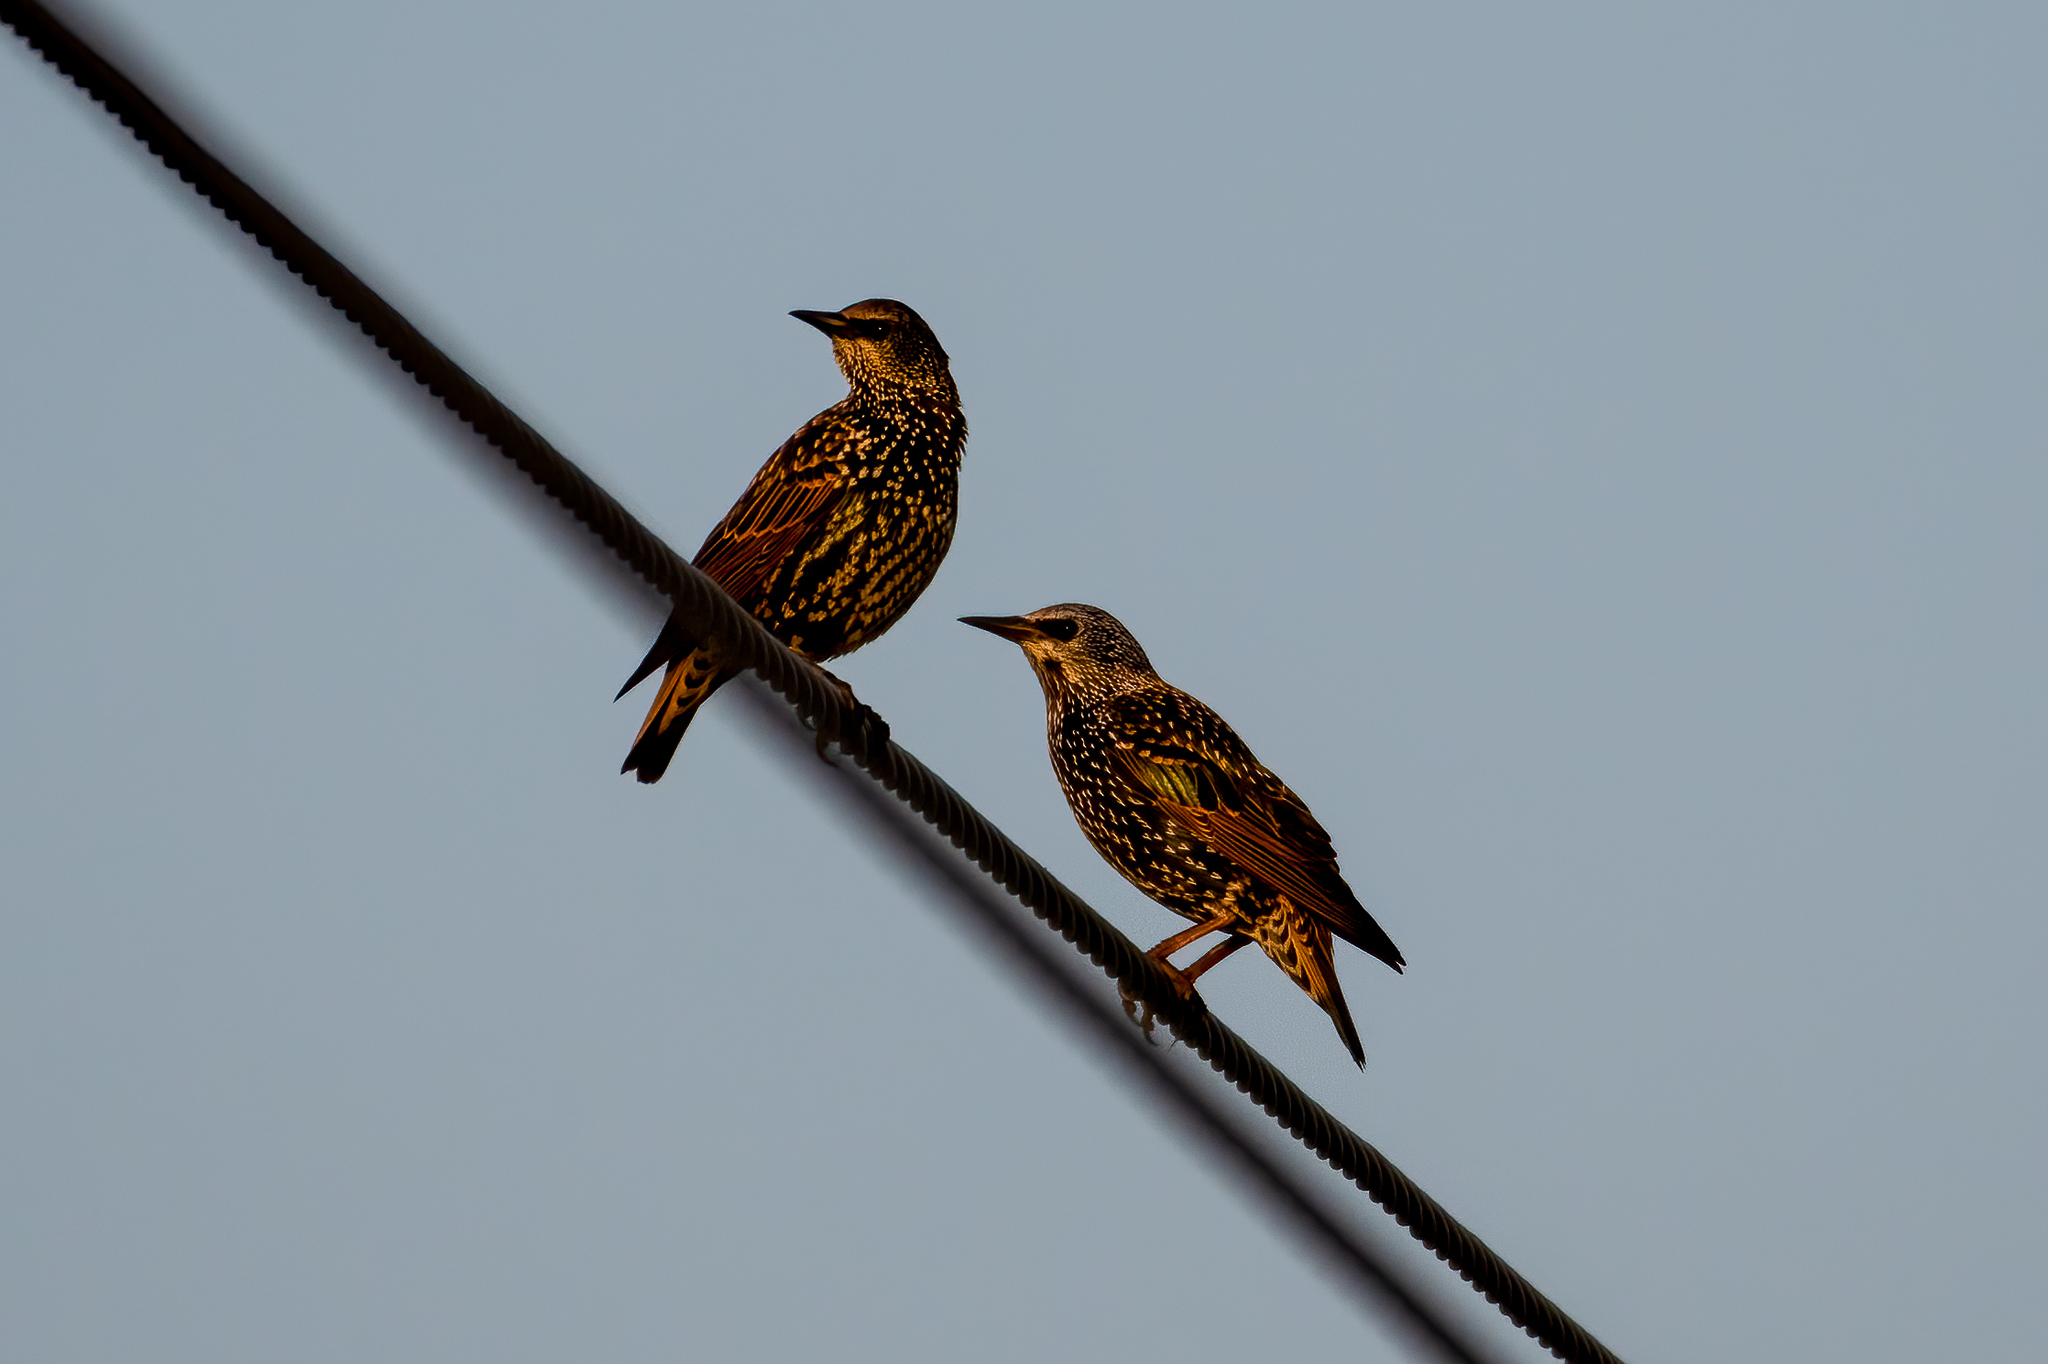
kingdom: Animalia
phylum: Chordata
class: Aves
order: Passeriformes
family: Sturnidae
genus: Sturnus
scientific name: Sturnus vulgaris
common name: Common starling
